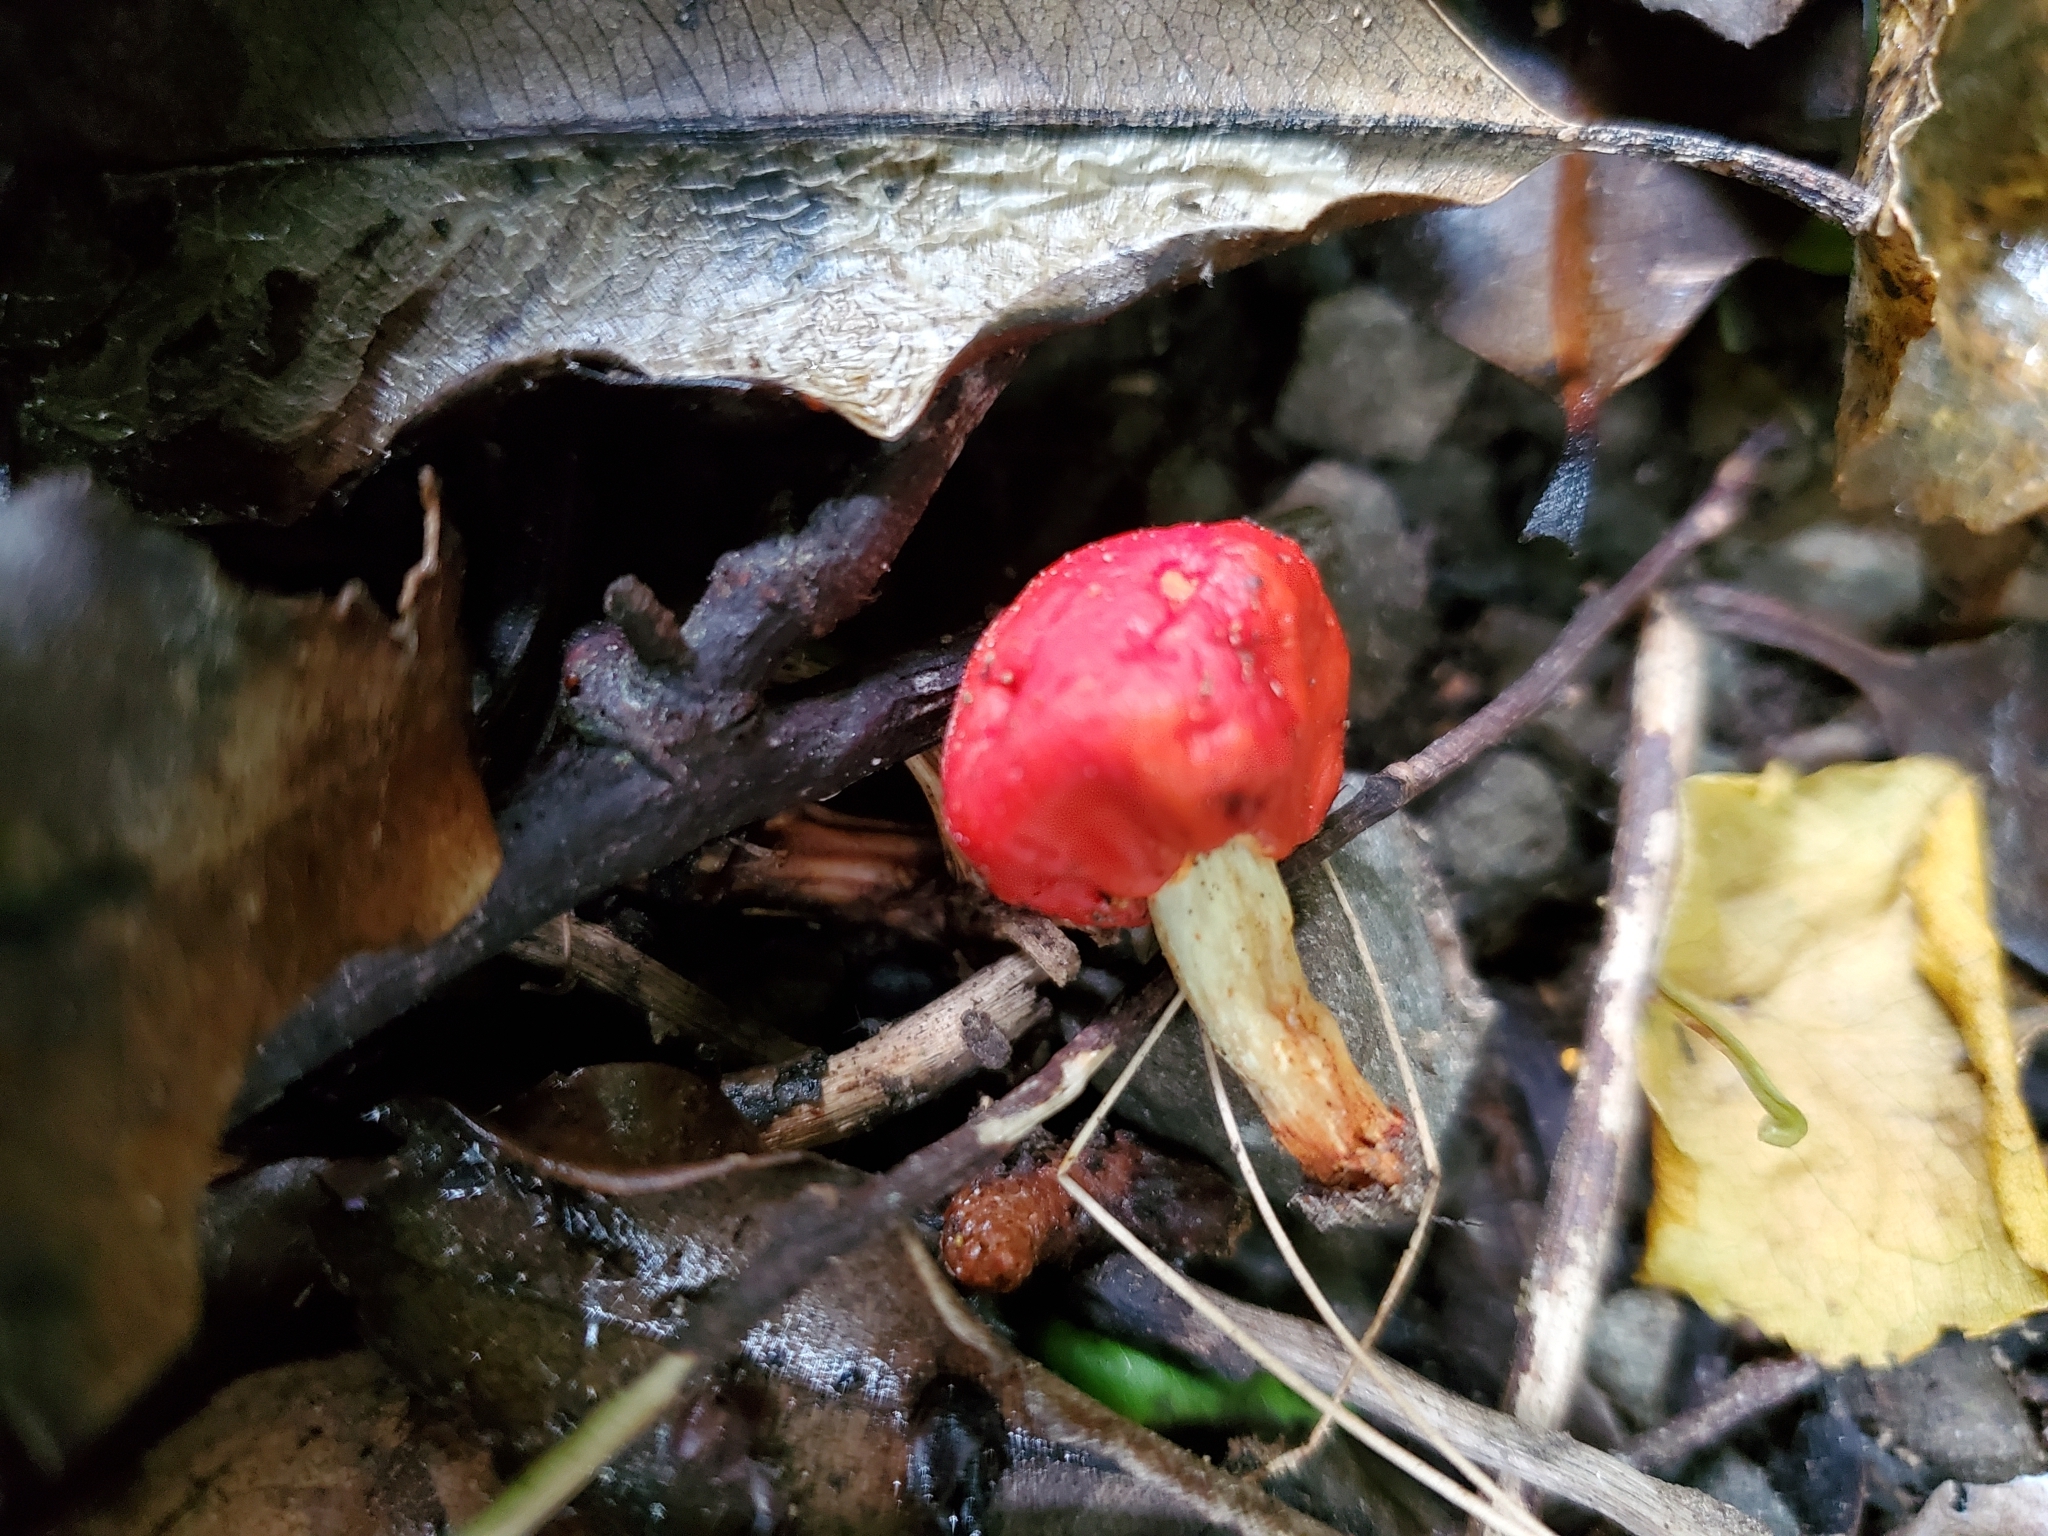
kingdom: Fungi
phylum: Basidiomycota
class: Agaricomycetes
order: Agaricales
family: Strophariaceae
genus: Leratiomyces
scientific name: Leratiomyces erythrocephalus
